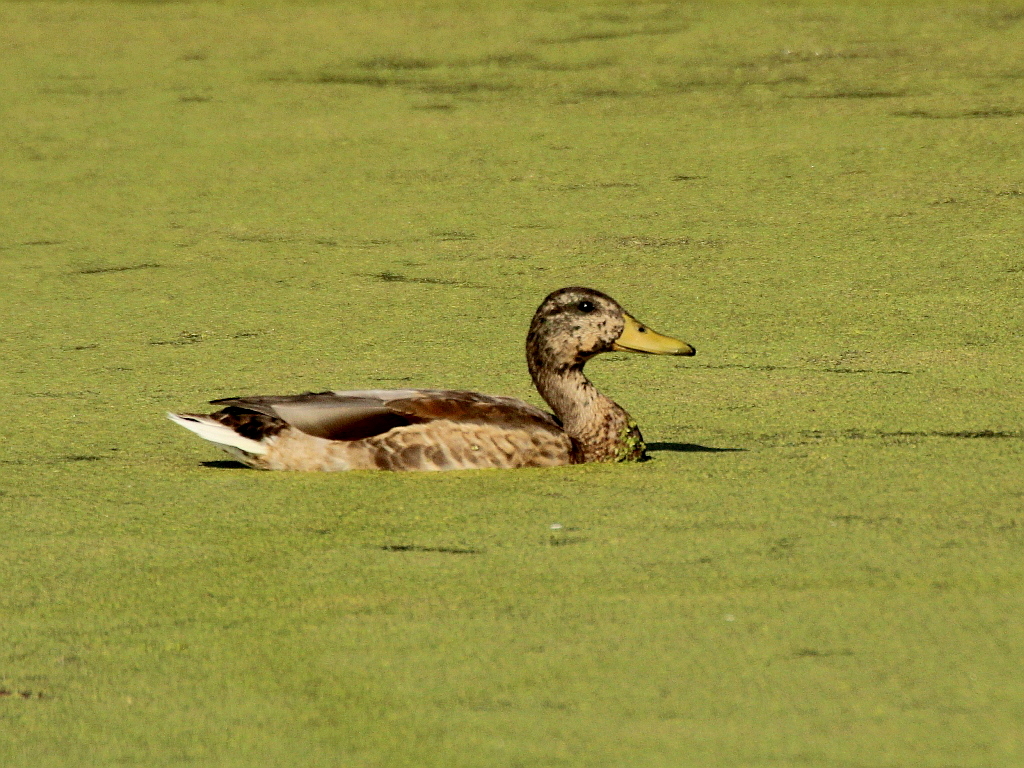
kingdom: Animalia
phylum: Chordata
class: Aves
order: Anseriformes
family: Anatidae
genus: Anas
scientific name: Anas platyrhynchos
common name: Mallard
